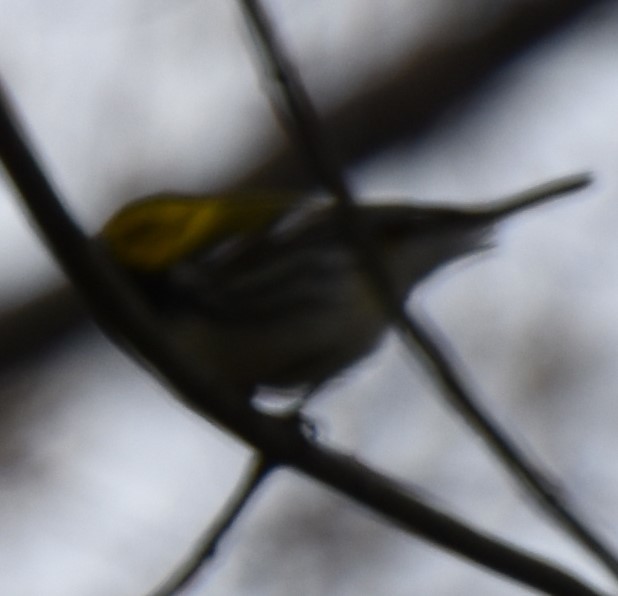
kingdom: Animalia
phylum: Chordata
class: Aves
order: Passeriformes
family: Parulidae
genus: Setophaga
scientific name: Setophaga virens
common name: Black-throated green warbler
